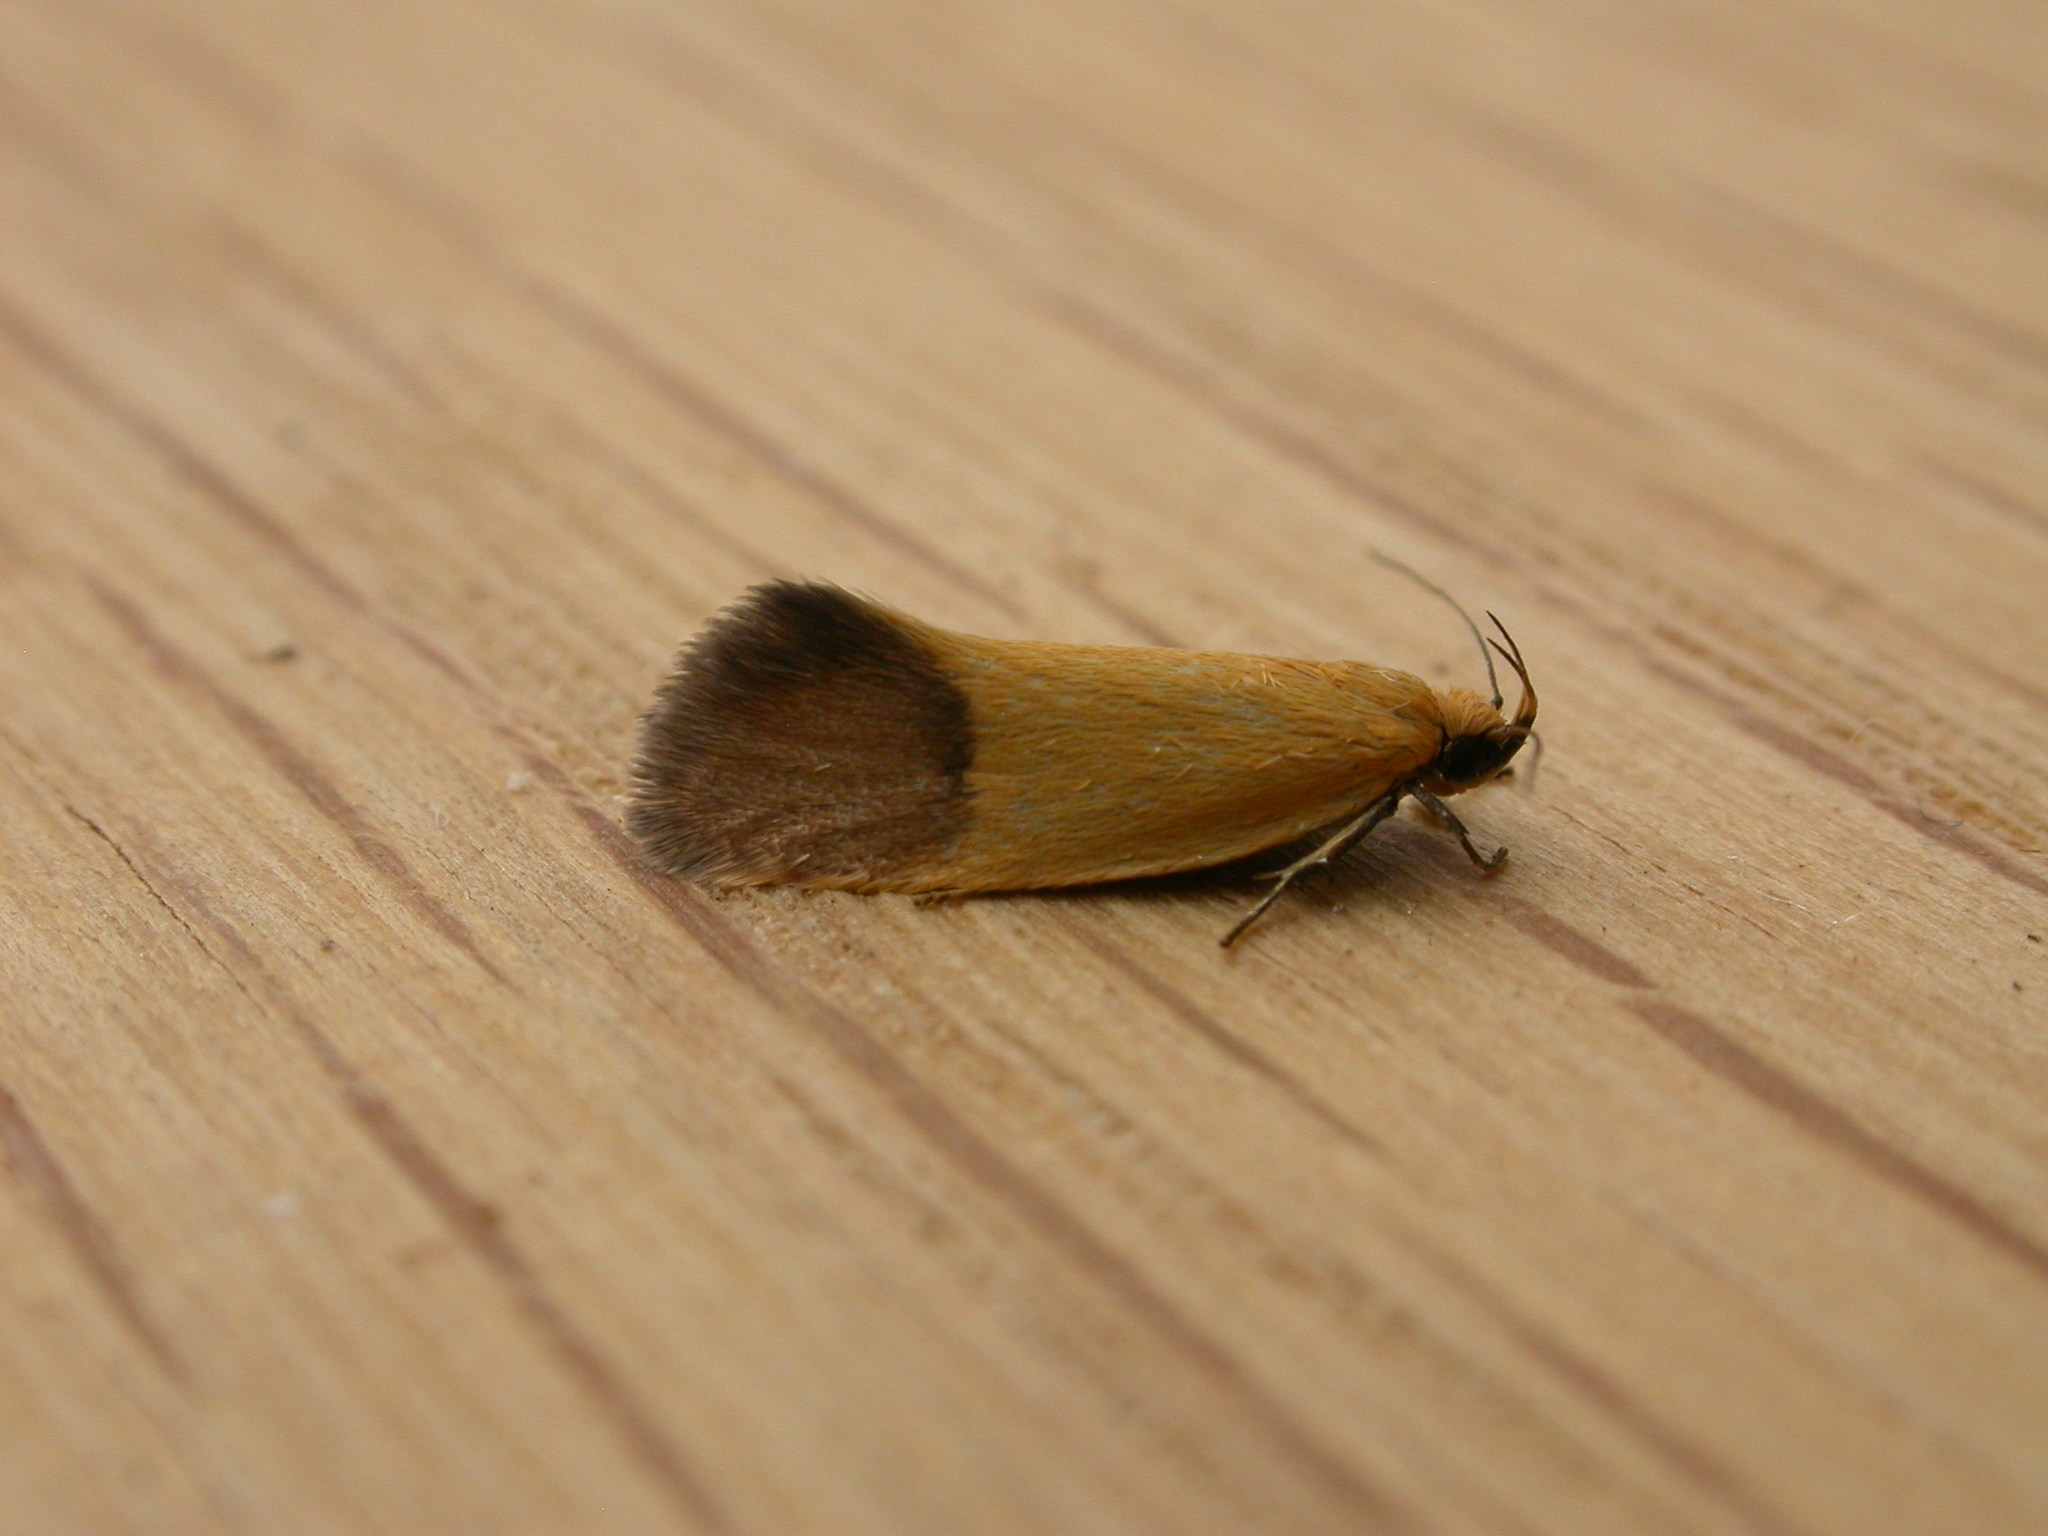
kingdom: Animalia
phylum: Arthropoda
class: Insecta
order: Lepidoptera
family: Oecophoridae
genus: Merocroca
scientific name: Merocroca automima
